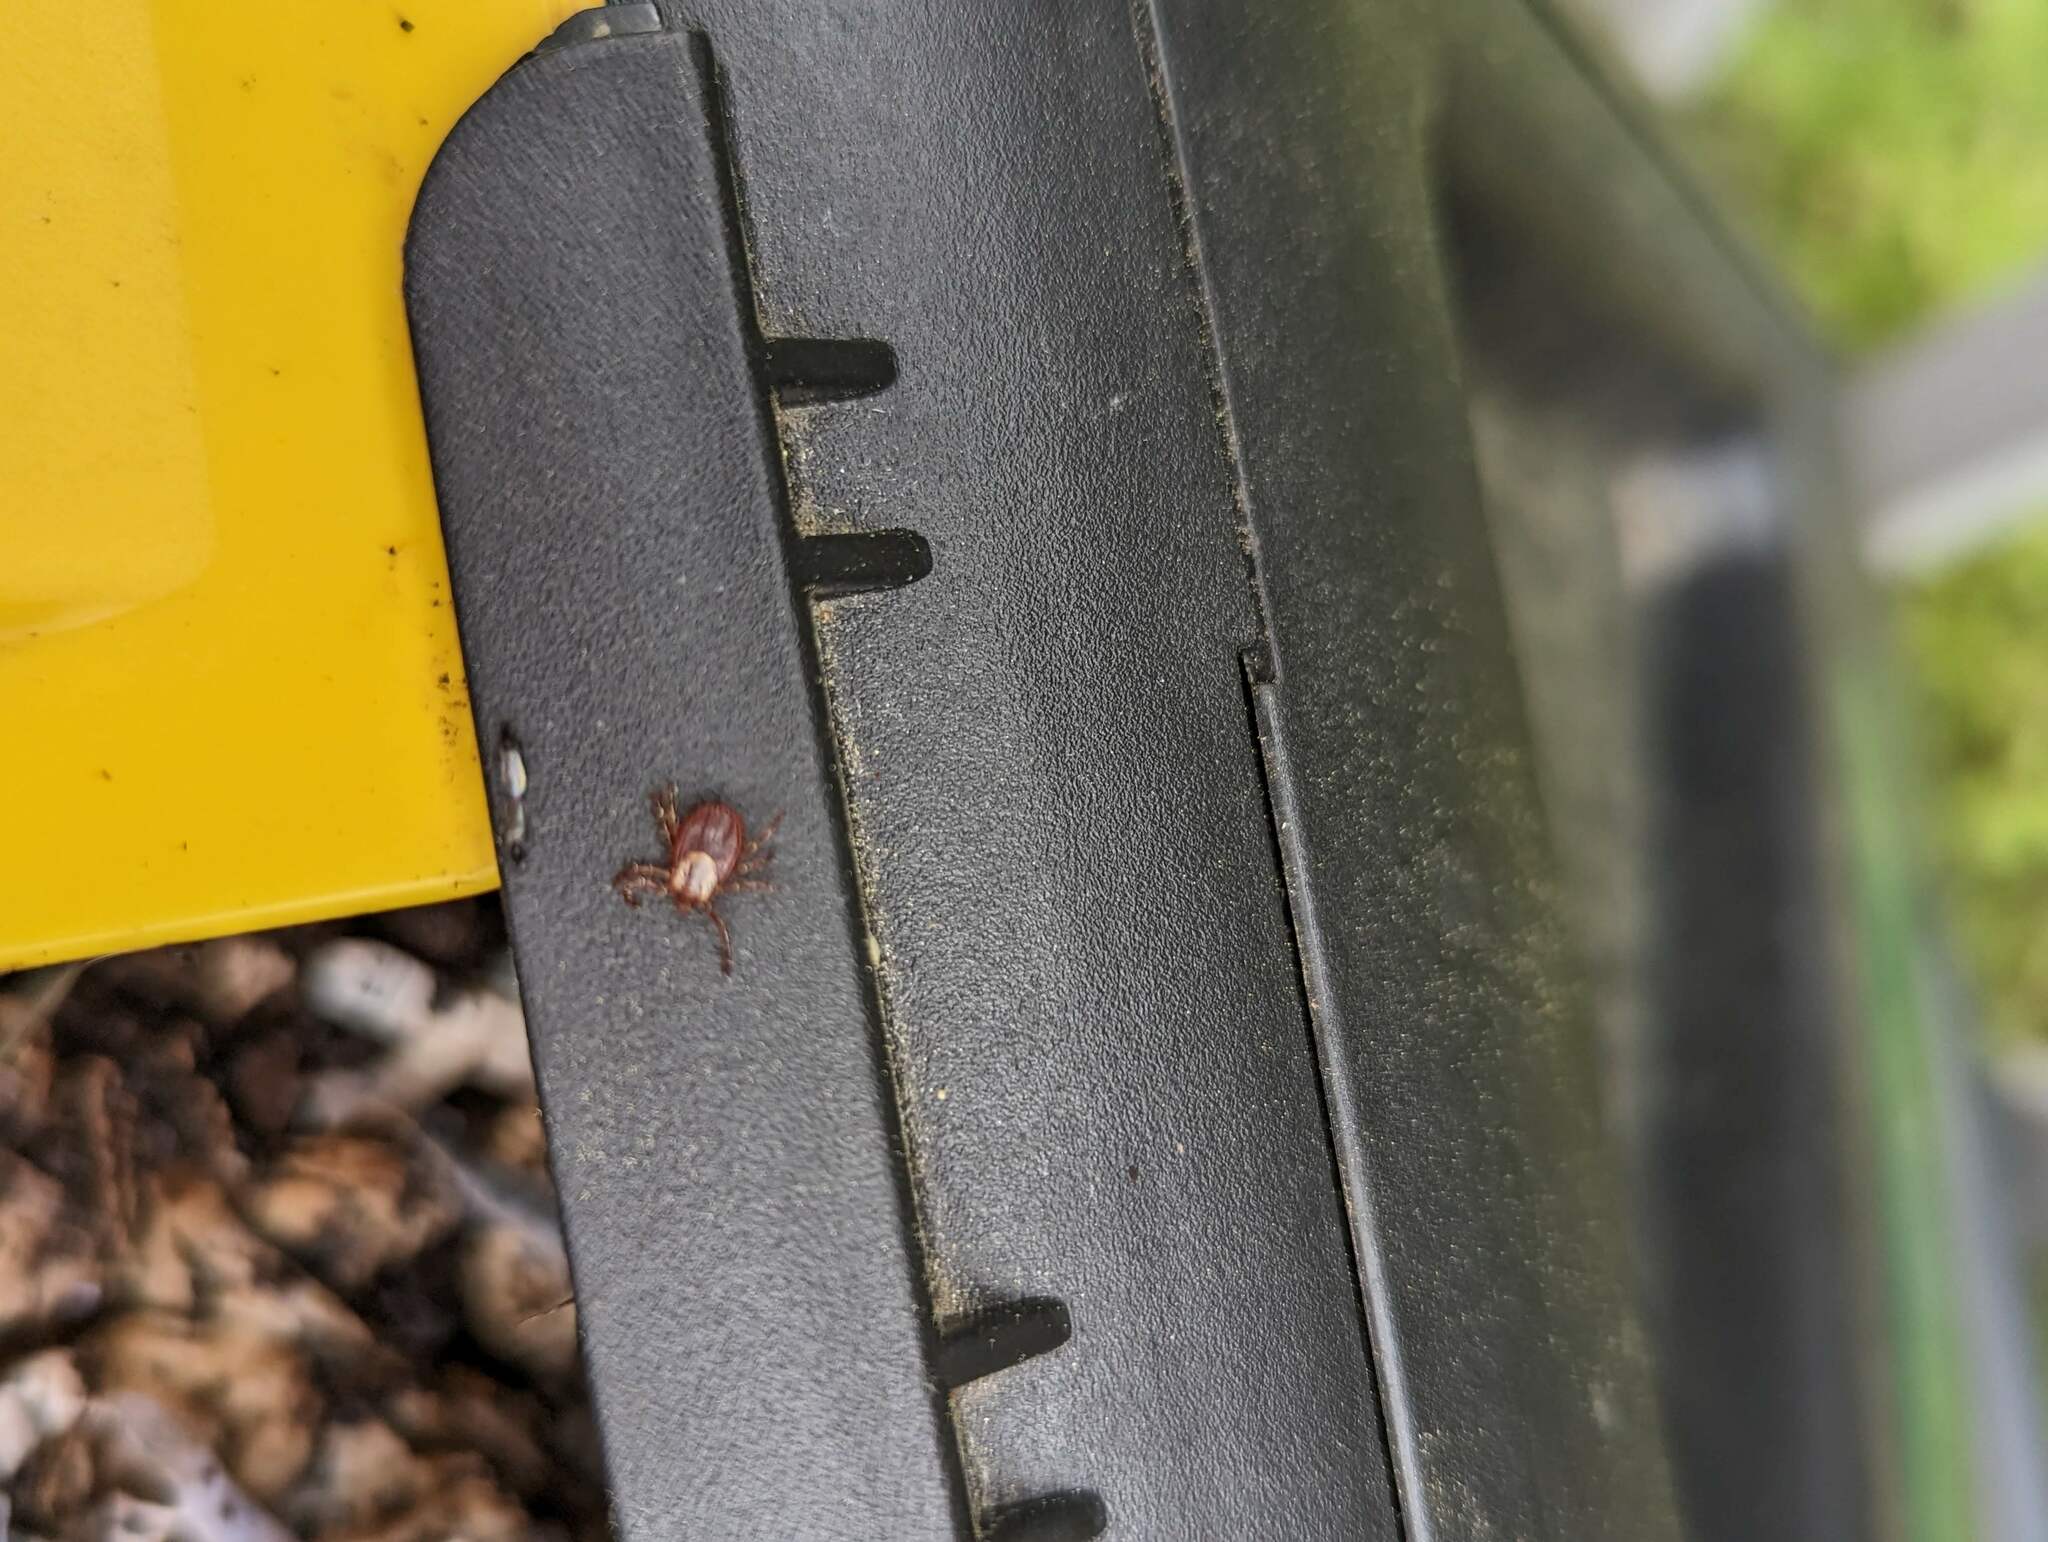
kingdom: Animalia
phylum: Arthropoda
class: Arachnida
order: Ixodida
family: Ixodidae
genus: Dermacentor
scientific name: Dermacentor variabilis
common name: American dog tick
